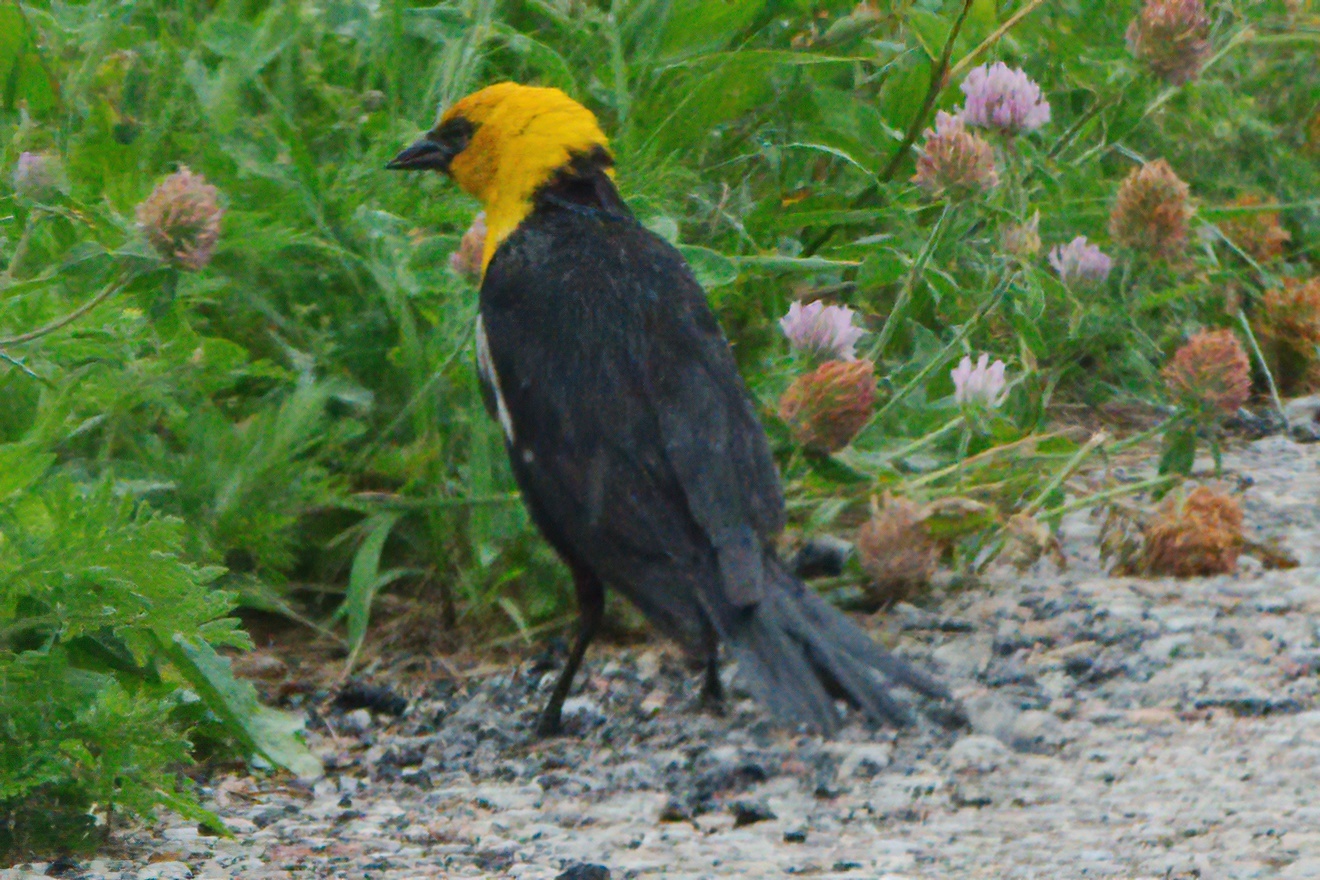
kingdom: Animalia
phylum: Chordata
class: Aves
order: Passeriformes
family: Icteridae
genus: Xanthocephalus
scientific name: Xanthocephalus xanthocephalus
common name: Yellow-headed blackbird
